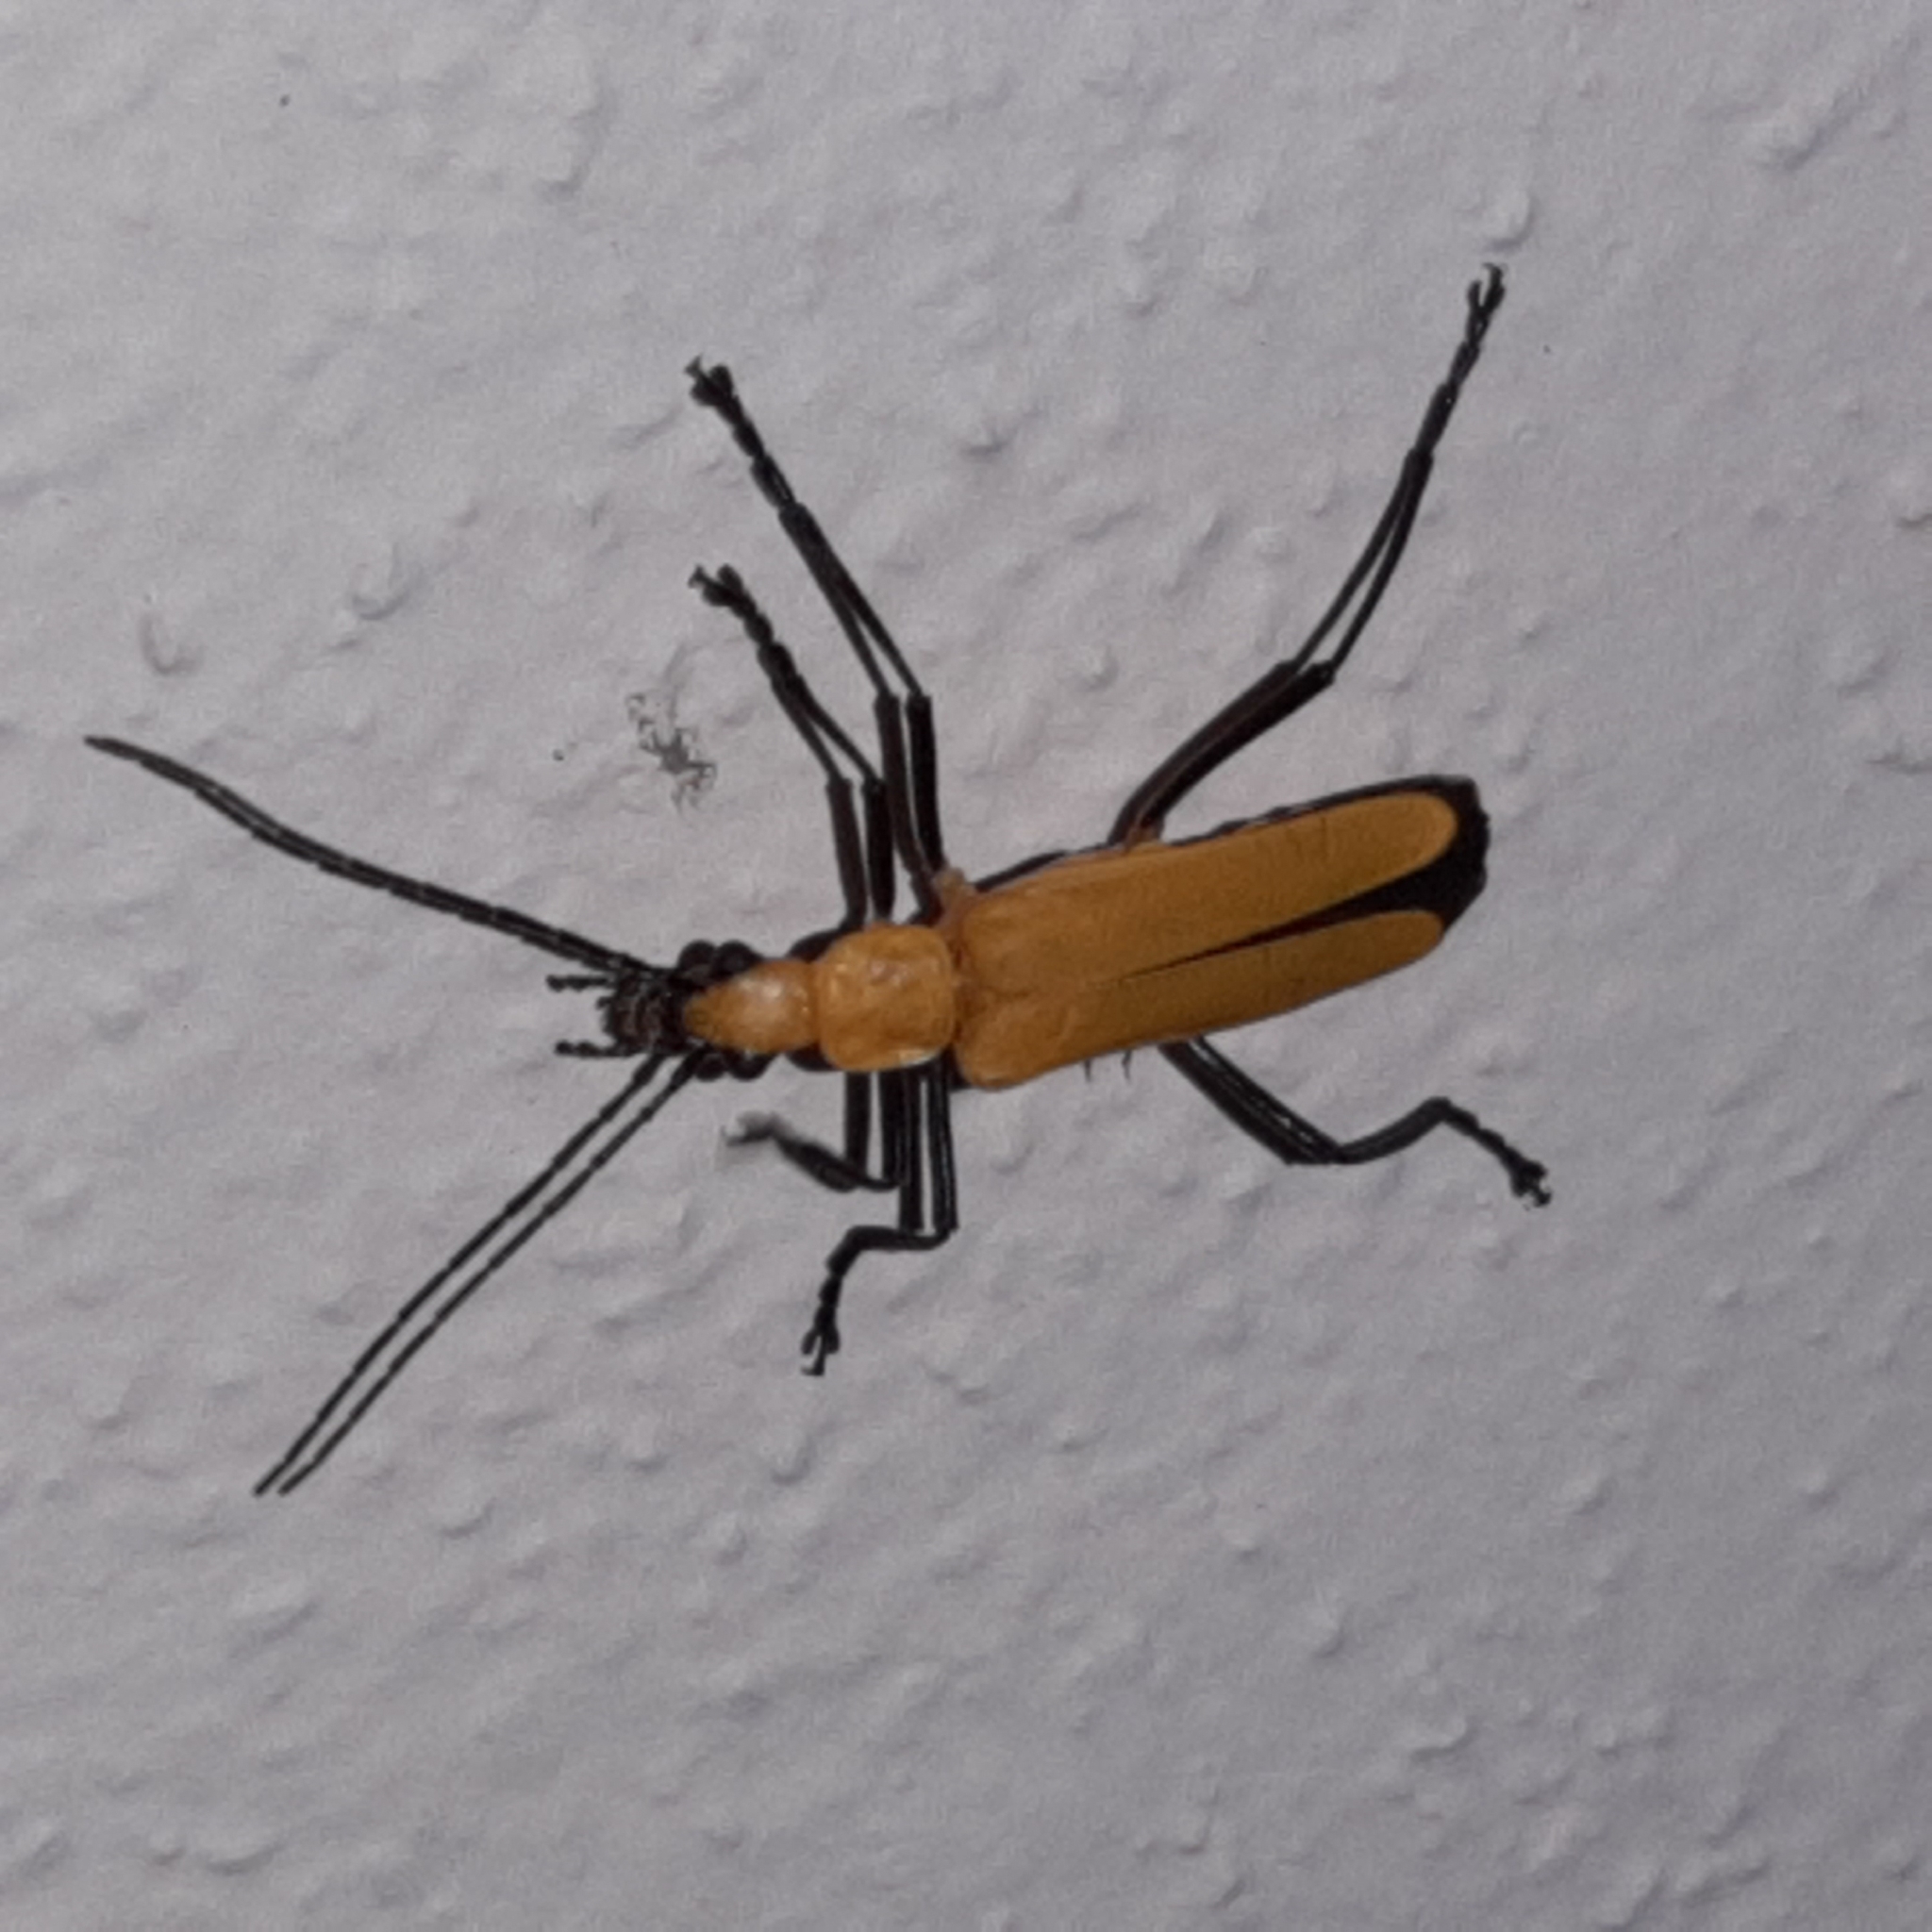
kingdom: Animalia
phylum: Arthropoda
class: Insecta
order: Coleoptera
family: Cantharidae
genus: Chauliognathus
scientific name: Chauliognathus sulphureus
